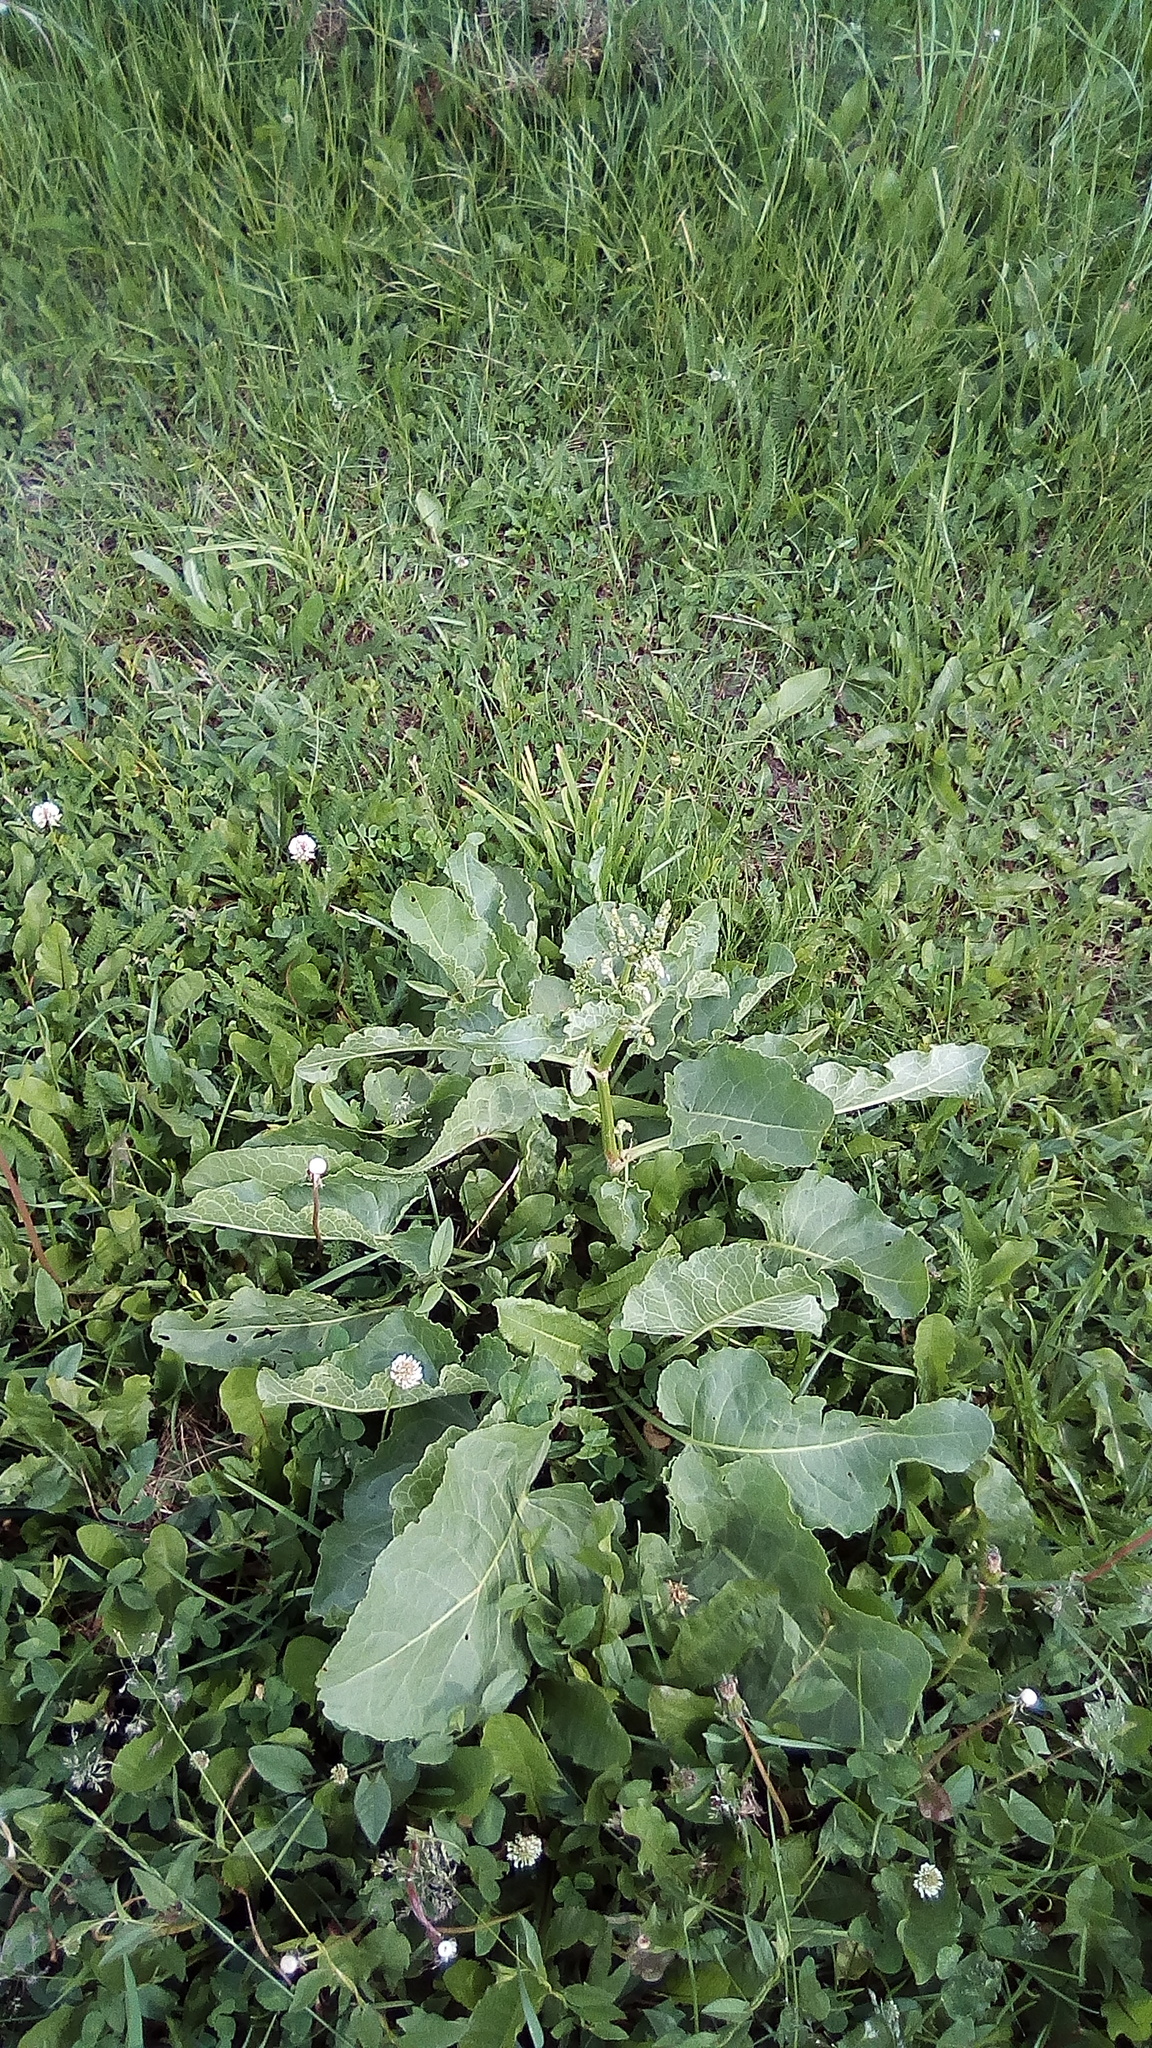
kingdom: Plantae
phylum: Tracheophyta
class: Magnoliopsida
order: Caryophyllales
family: Polygonaceae
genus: Rumex
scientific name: Rumex confertus
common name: Russian dock
